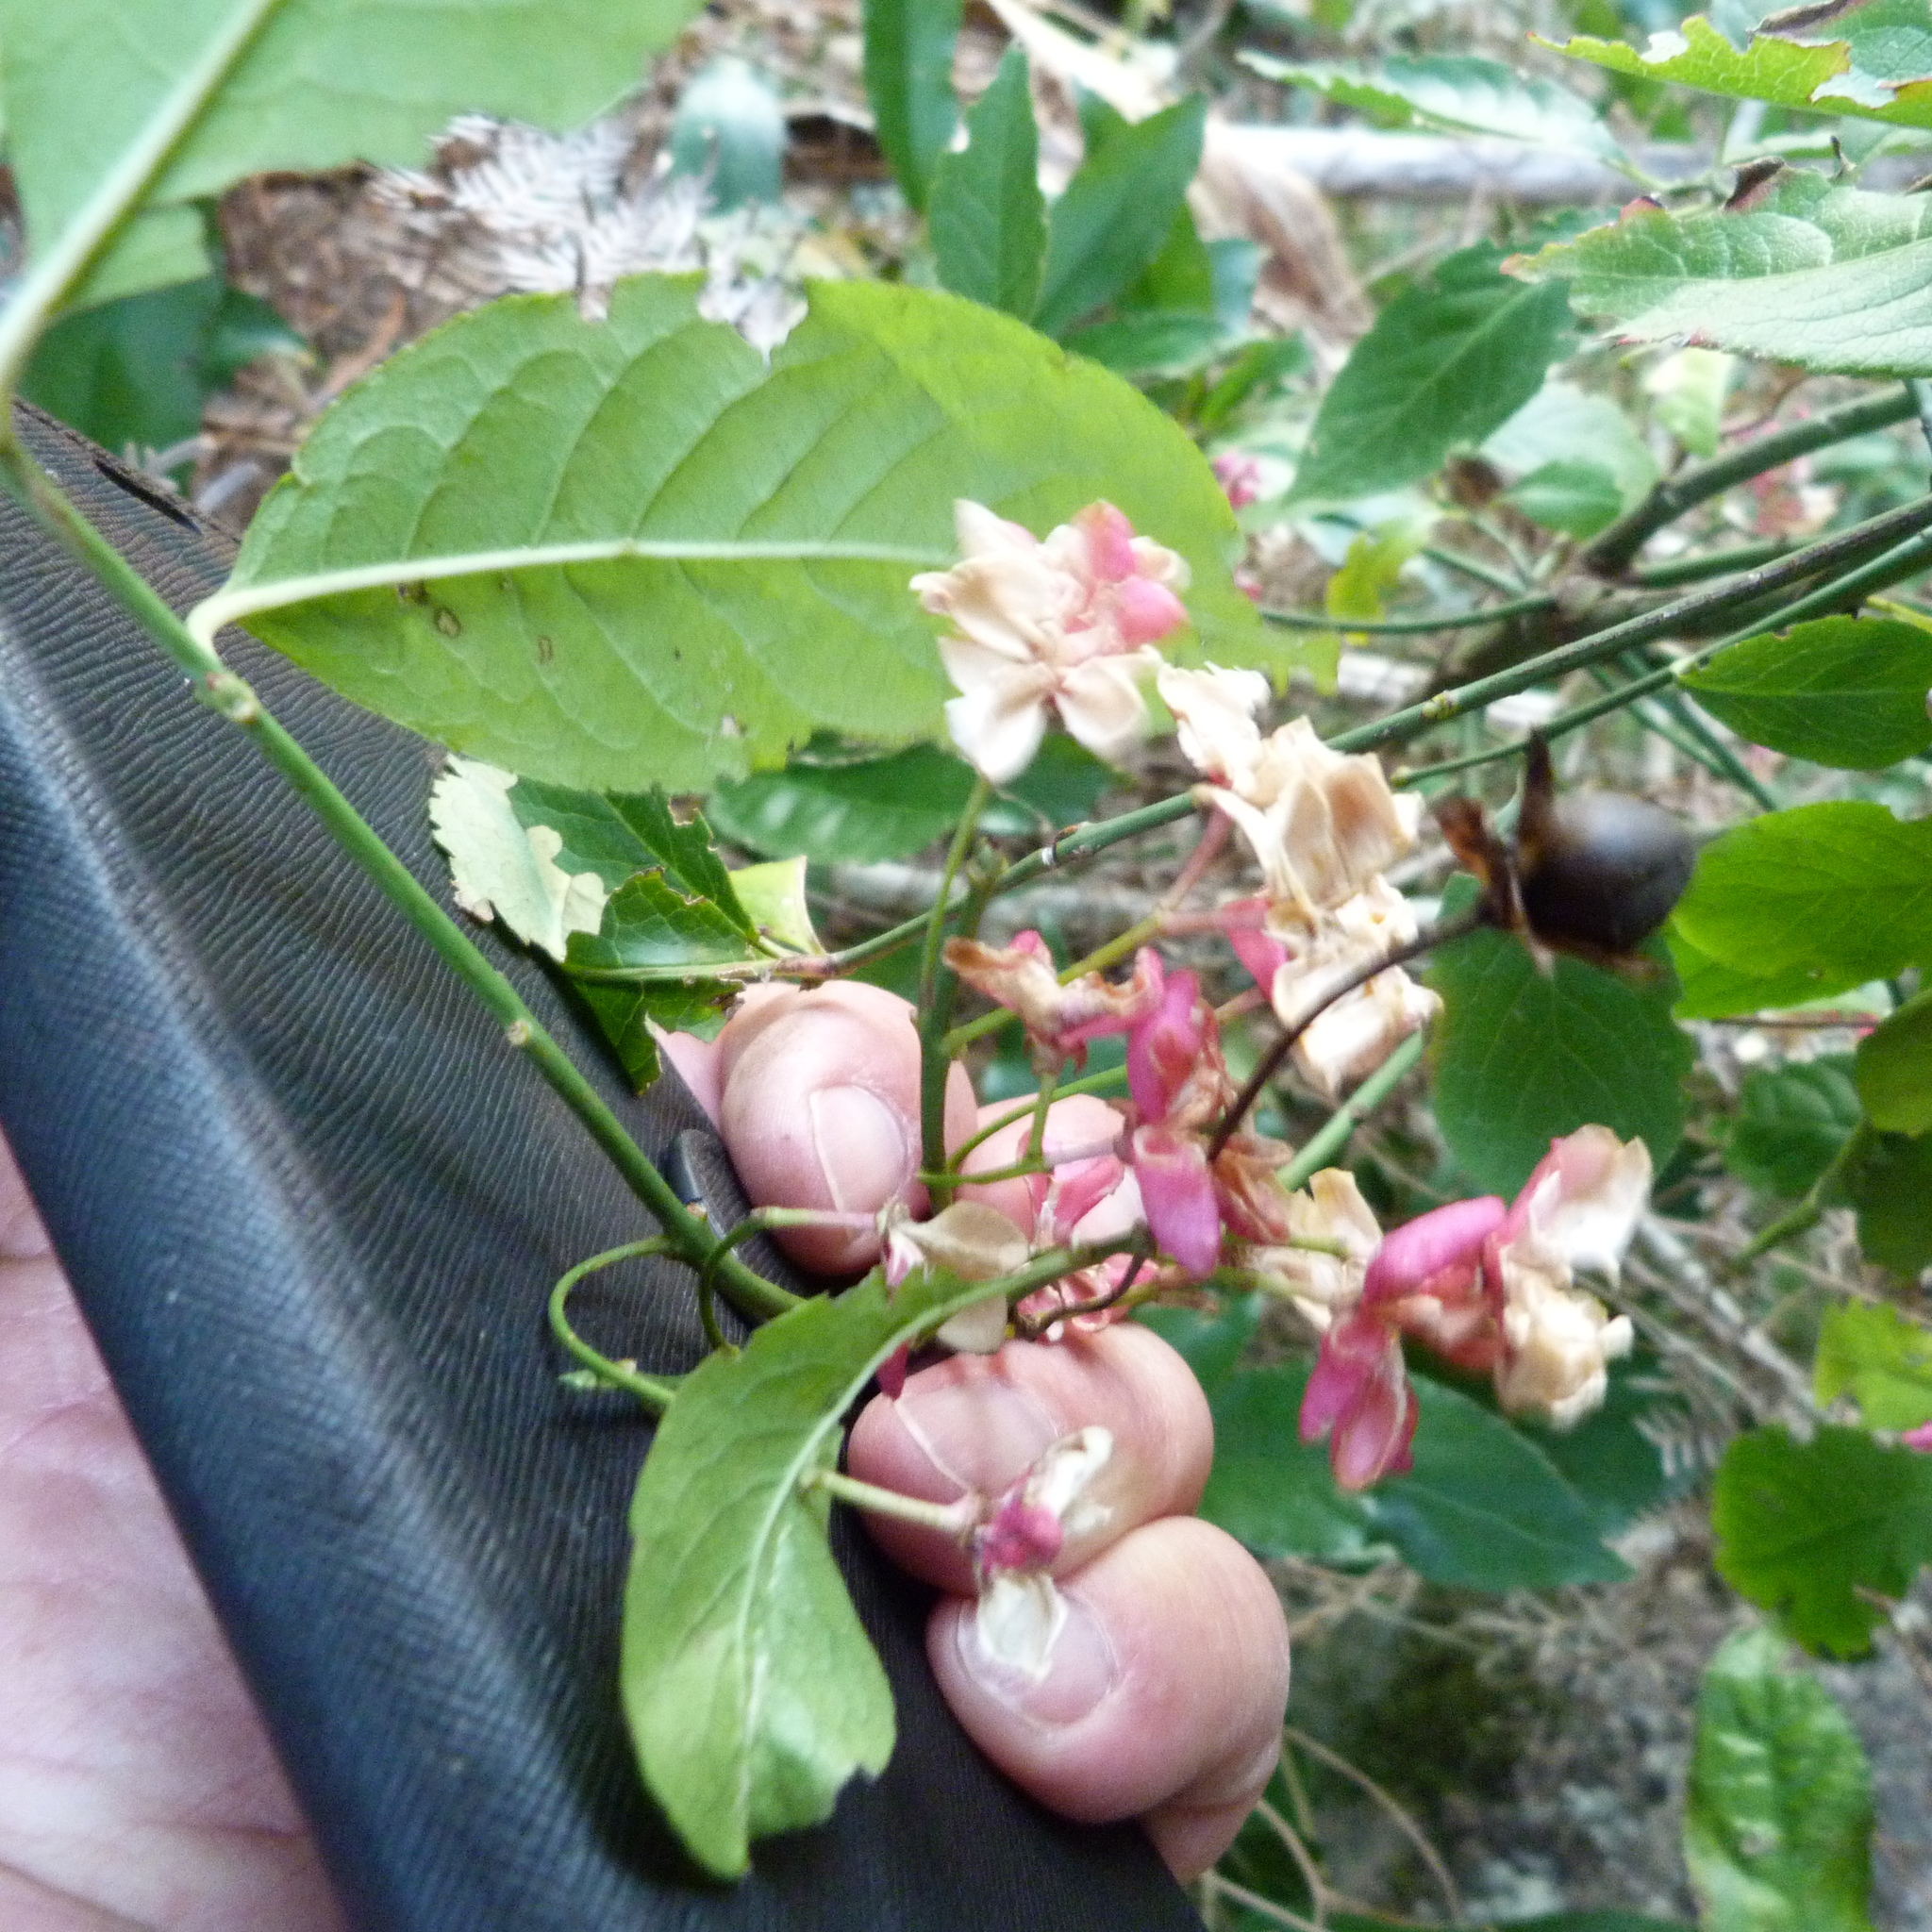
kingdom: Plantae
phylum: Tracheophyta
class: Magnoliopsida
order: Celastrales
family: Celastraceae
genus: Euonymus
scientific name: Euonymus europaeus
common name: Spindle
